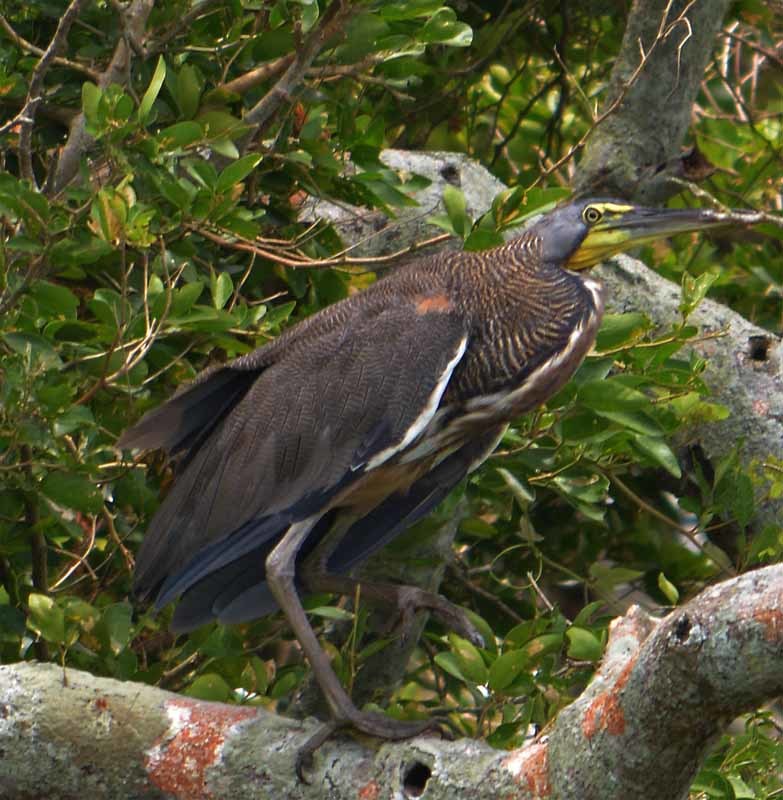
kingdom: Animalia
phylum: Chordata
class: Aves
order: Pelecaniformes
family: Ardeidae
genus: Tigrisoma
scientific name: Tigrisoma mexicanum
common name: Bare-throated tiger-heron
